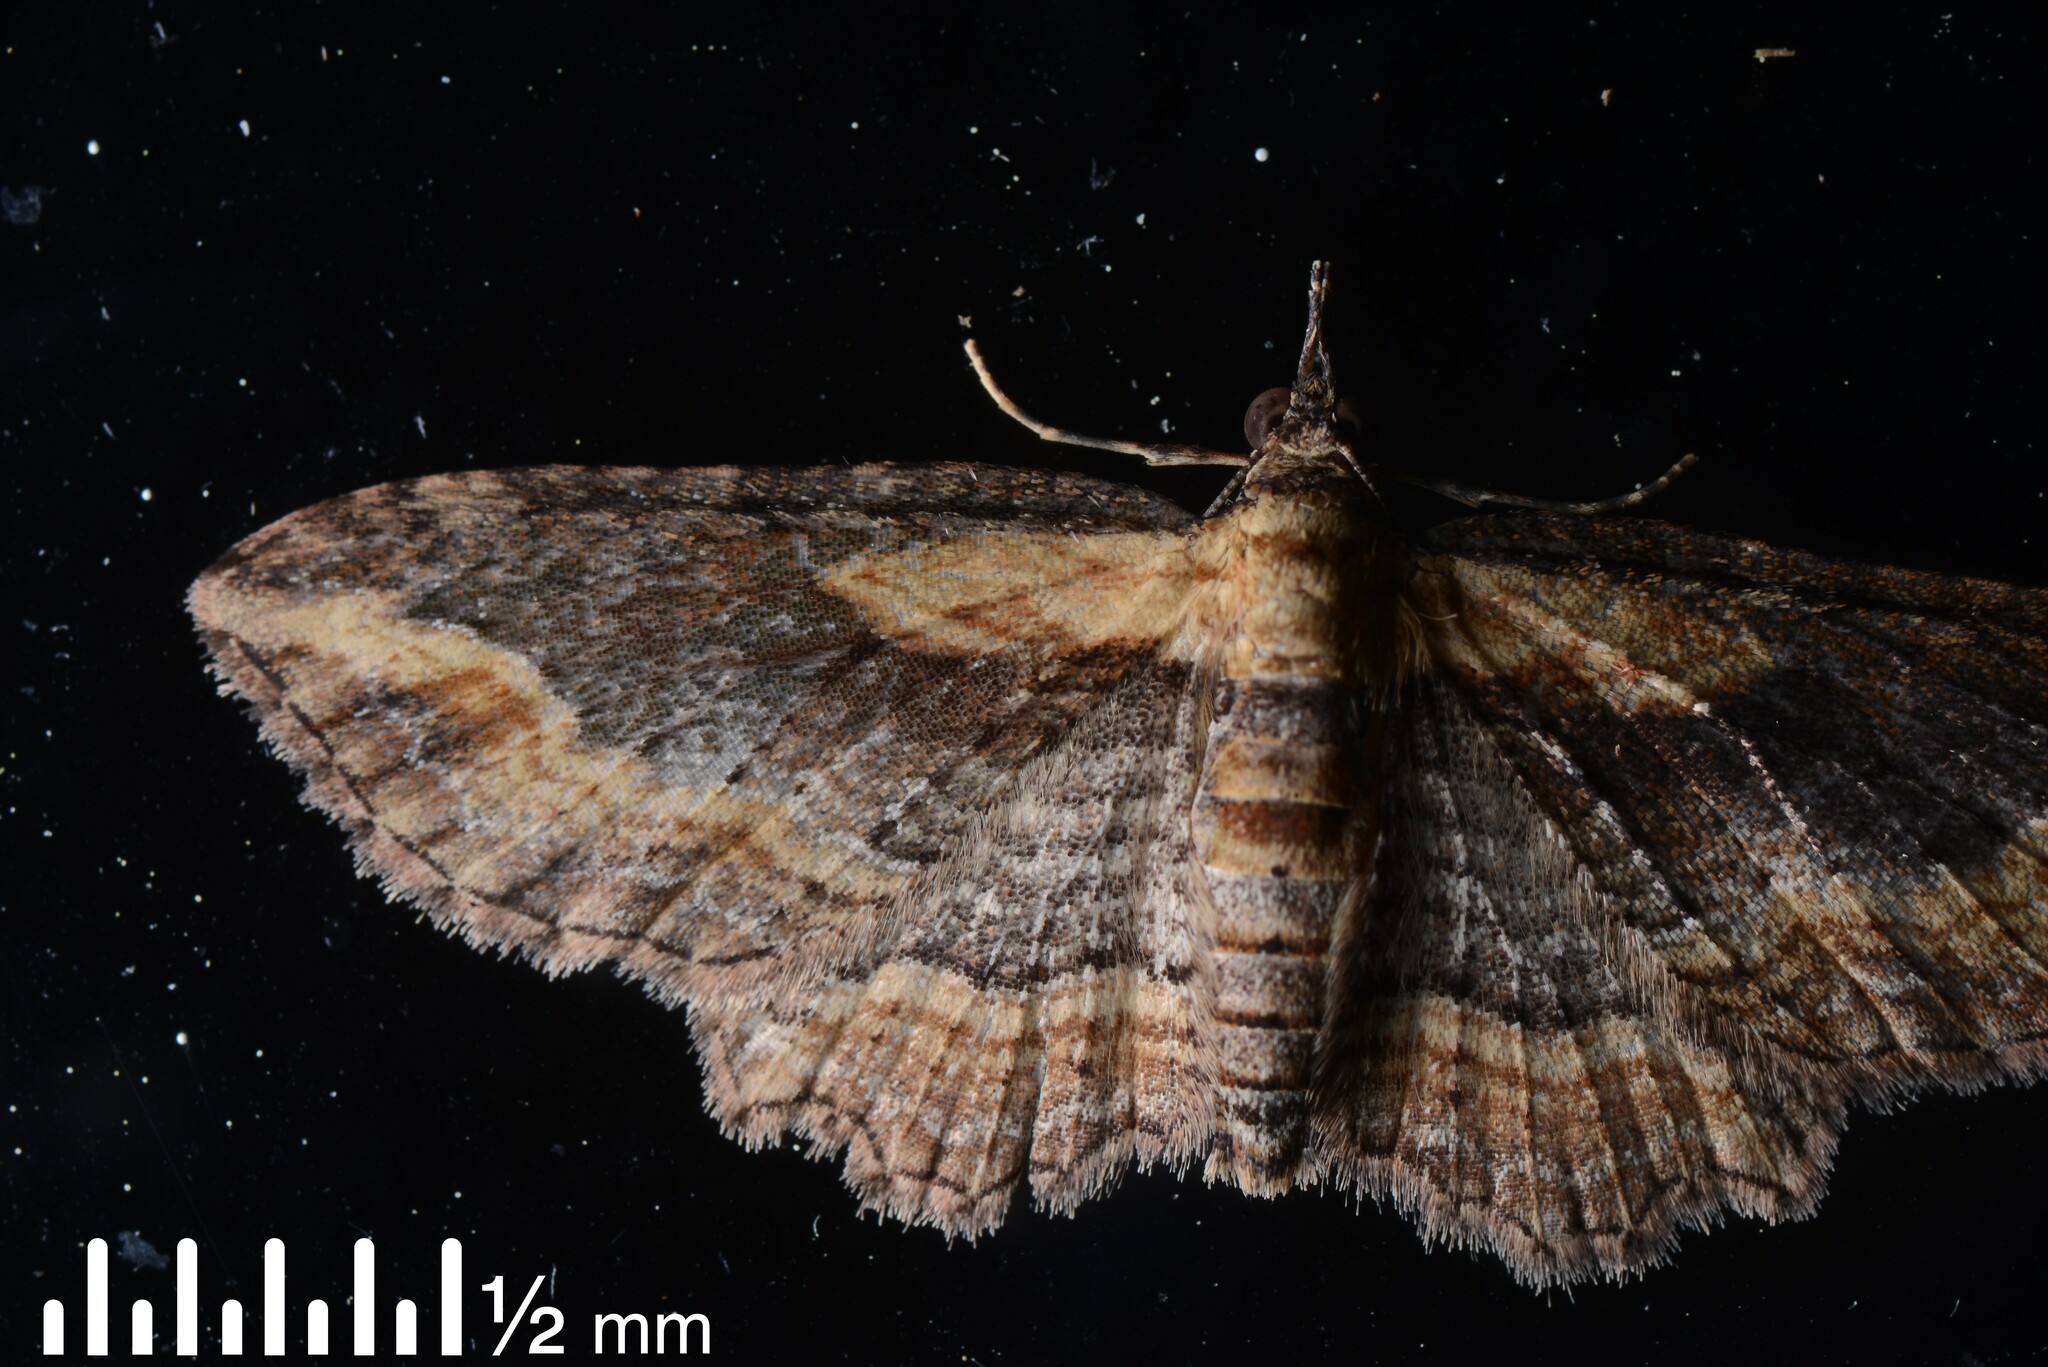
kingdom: Animalia
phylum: Arthropoda
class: Insecta
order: Lepidoptera
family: Geometridae
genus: Chloroclystis
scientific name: Chloroclystis filata
